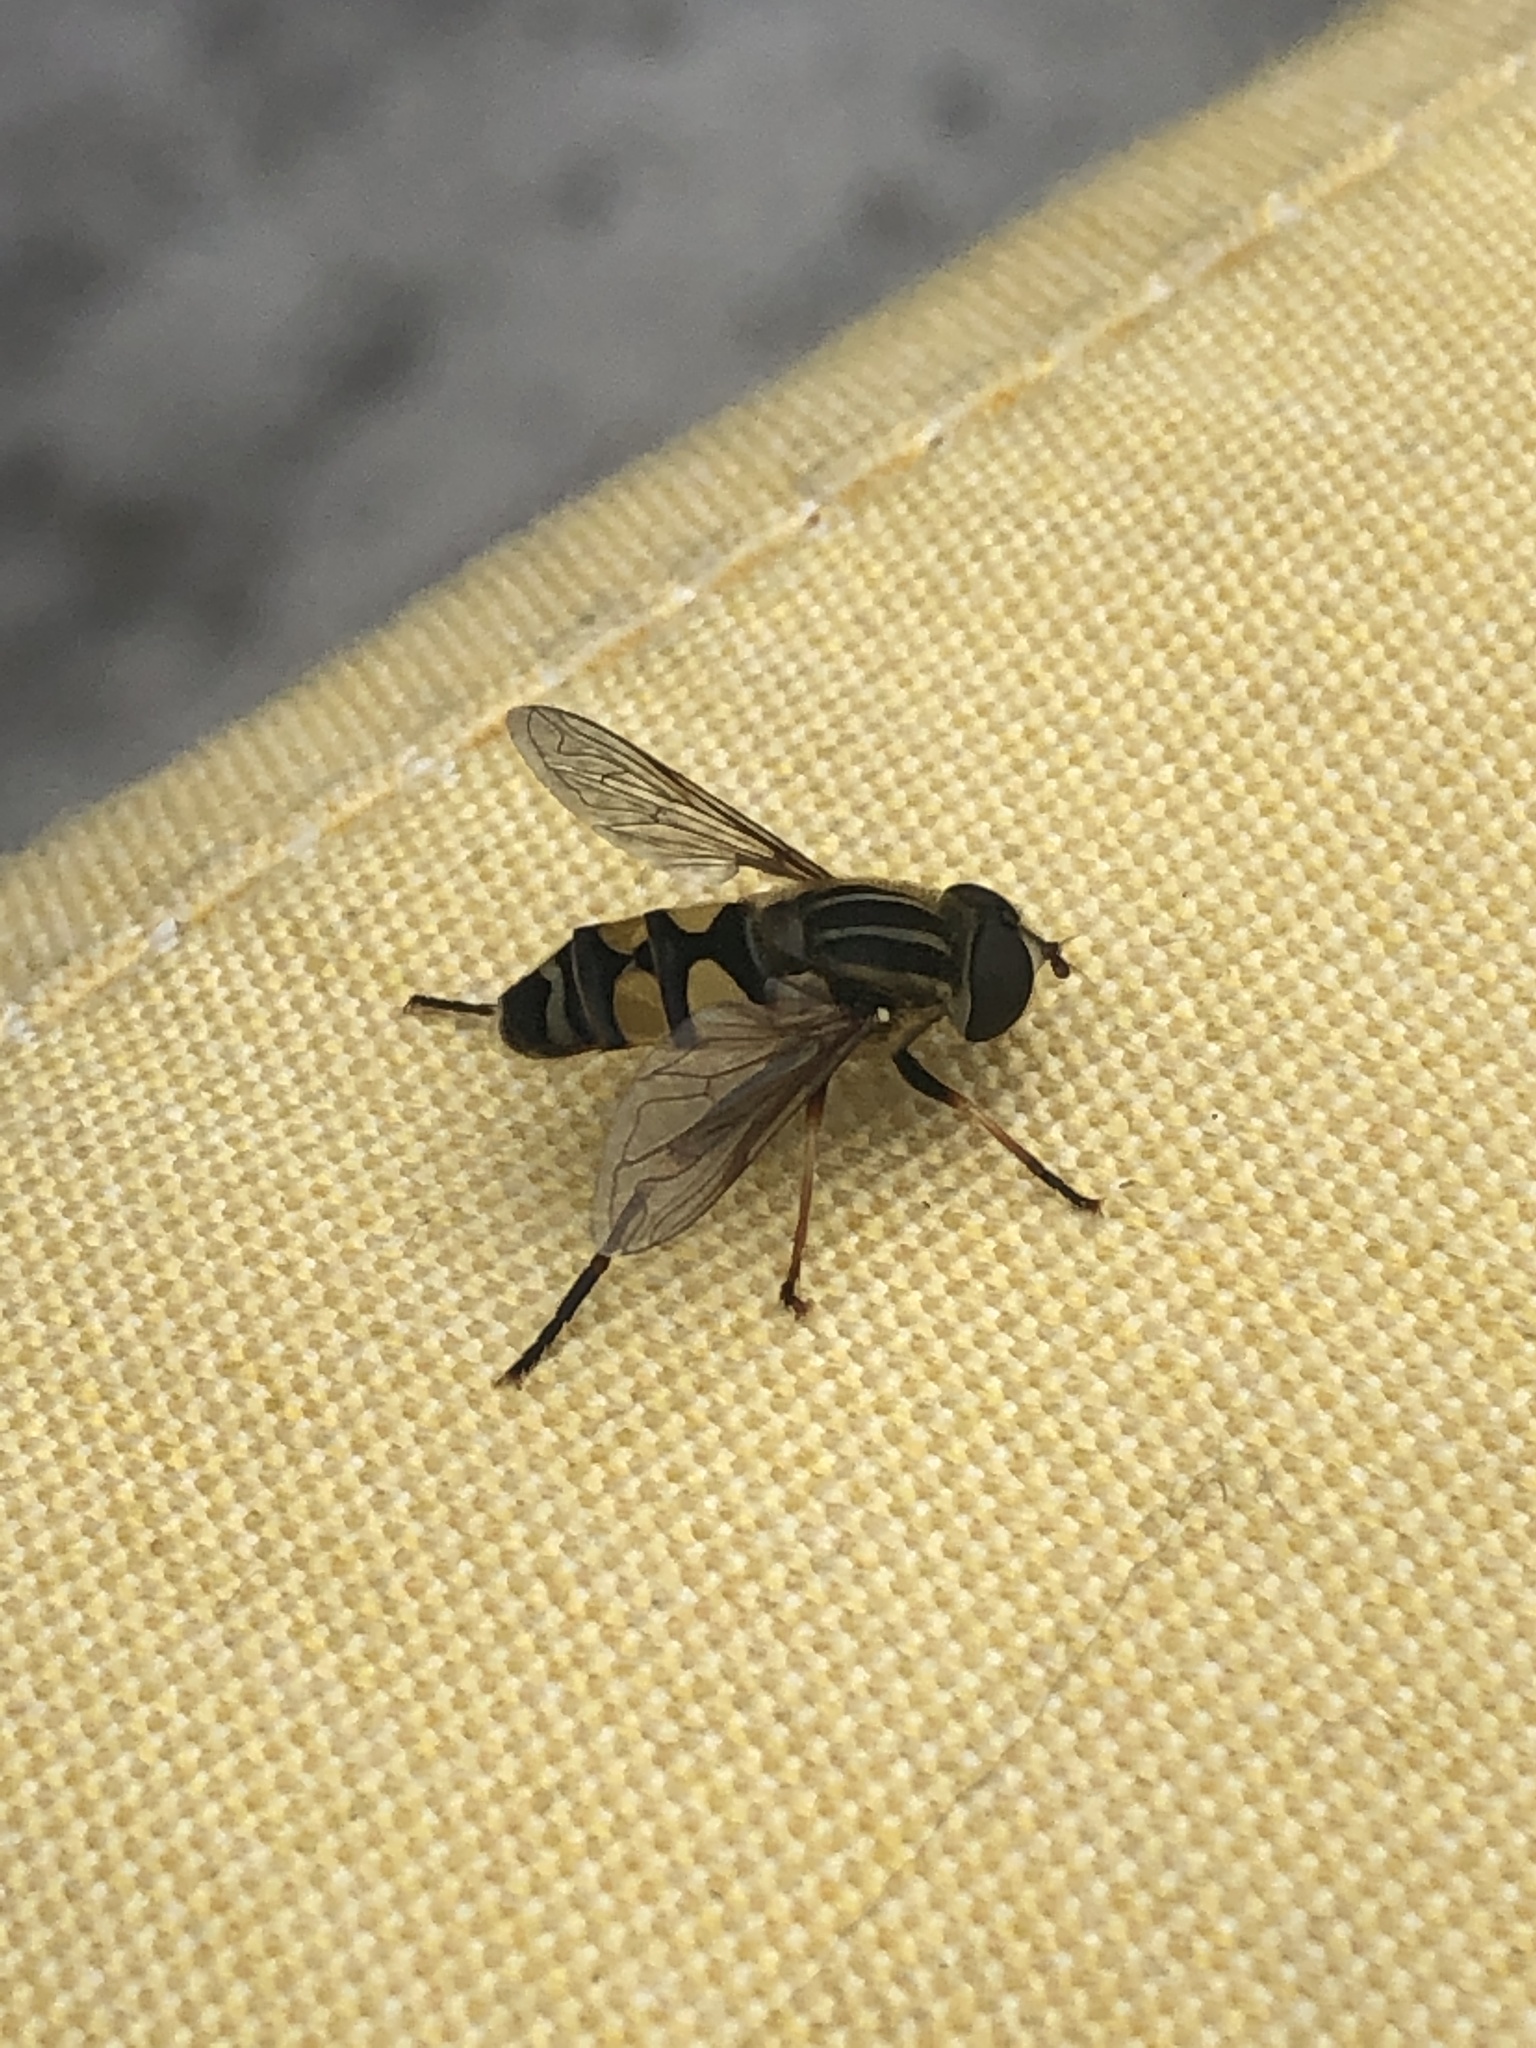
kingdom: Animalia
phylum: Arthropoda
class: Insecta
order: Diptera
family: Syrphidae
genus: Helophilus
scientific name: Helophilus fasciatus
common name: Narrow-headed marsh fly
